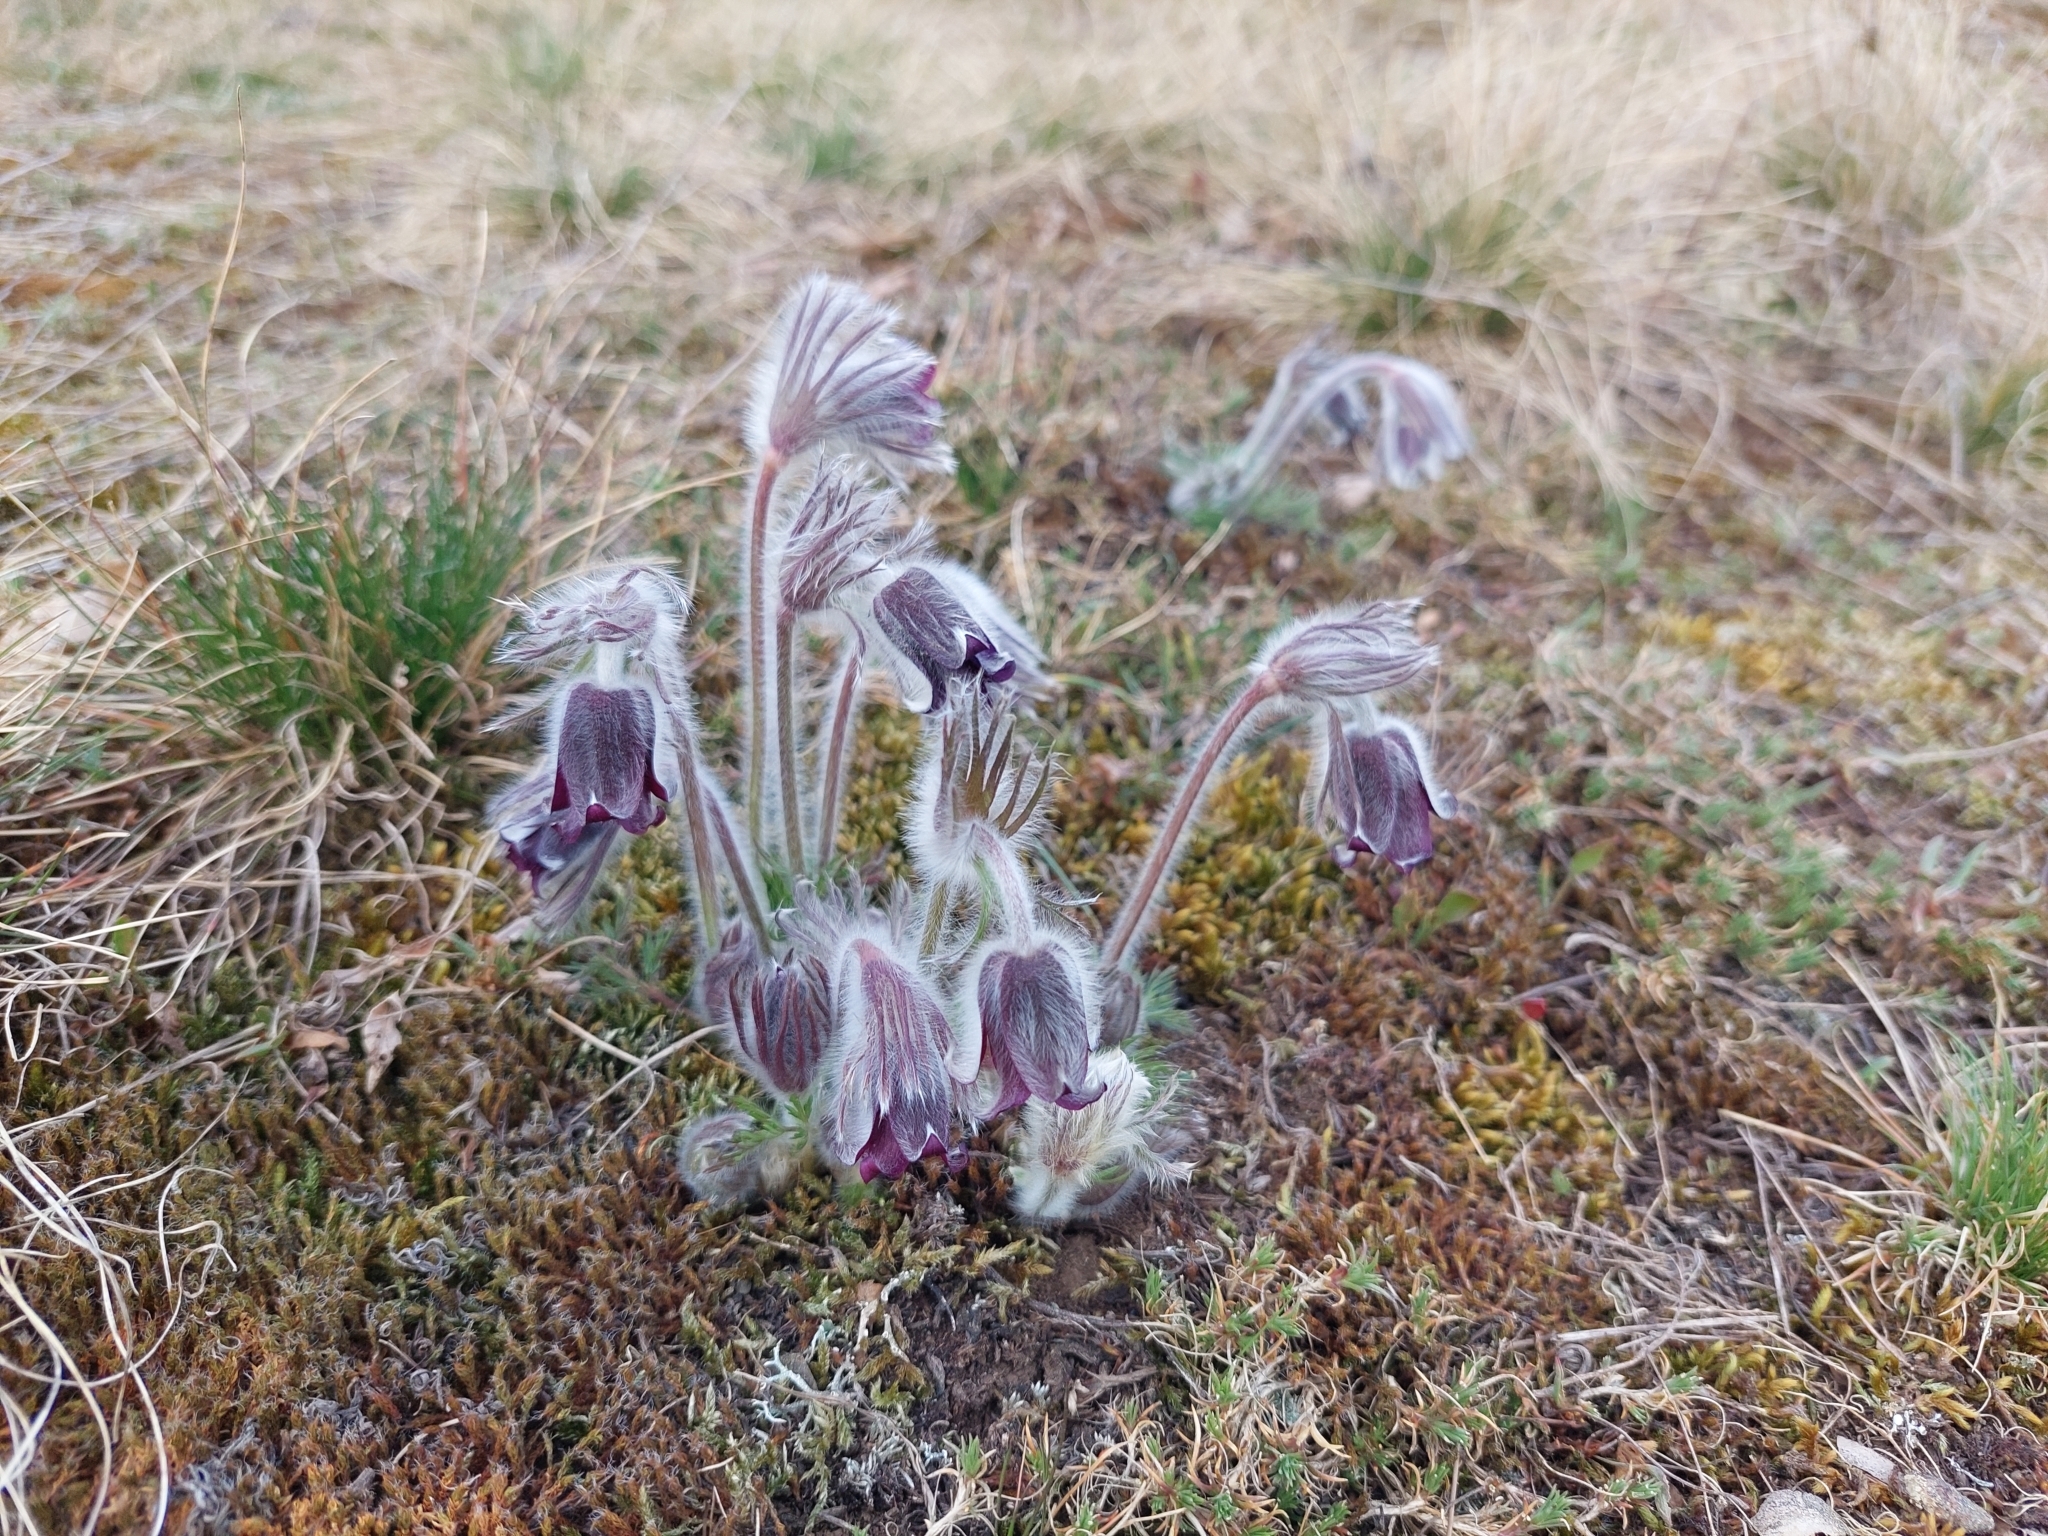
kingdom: Plantae
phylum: Tracheophyta
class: Magnoliopsida
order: Ranunculales
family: Ranunculaceae
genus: Pulsatilla
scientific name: Pulsatilla pratensis
